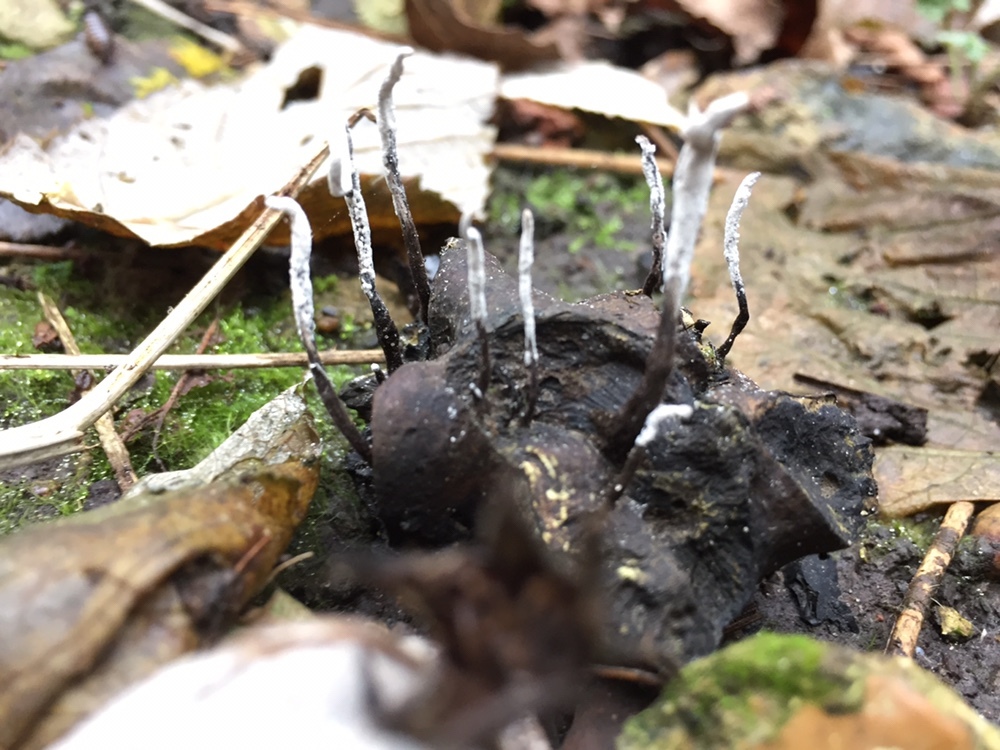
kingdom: Fungi
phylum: Ascomycota
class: Sordariomycetes
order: Xylariales
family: Xylariaceae
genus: Xylaria
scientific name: Xylaria hypoxylon
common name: Candle-snuff fungus
